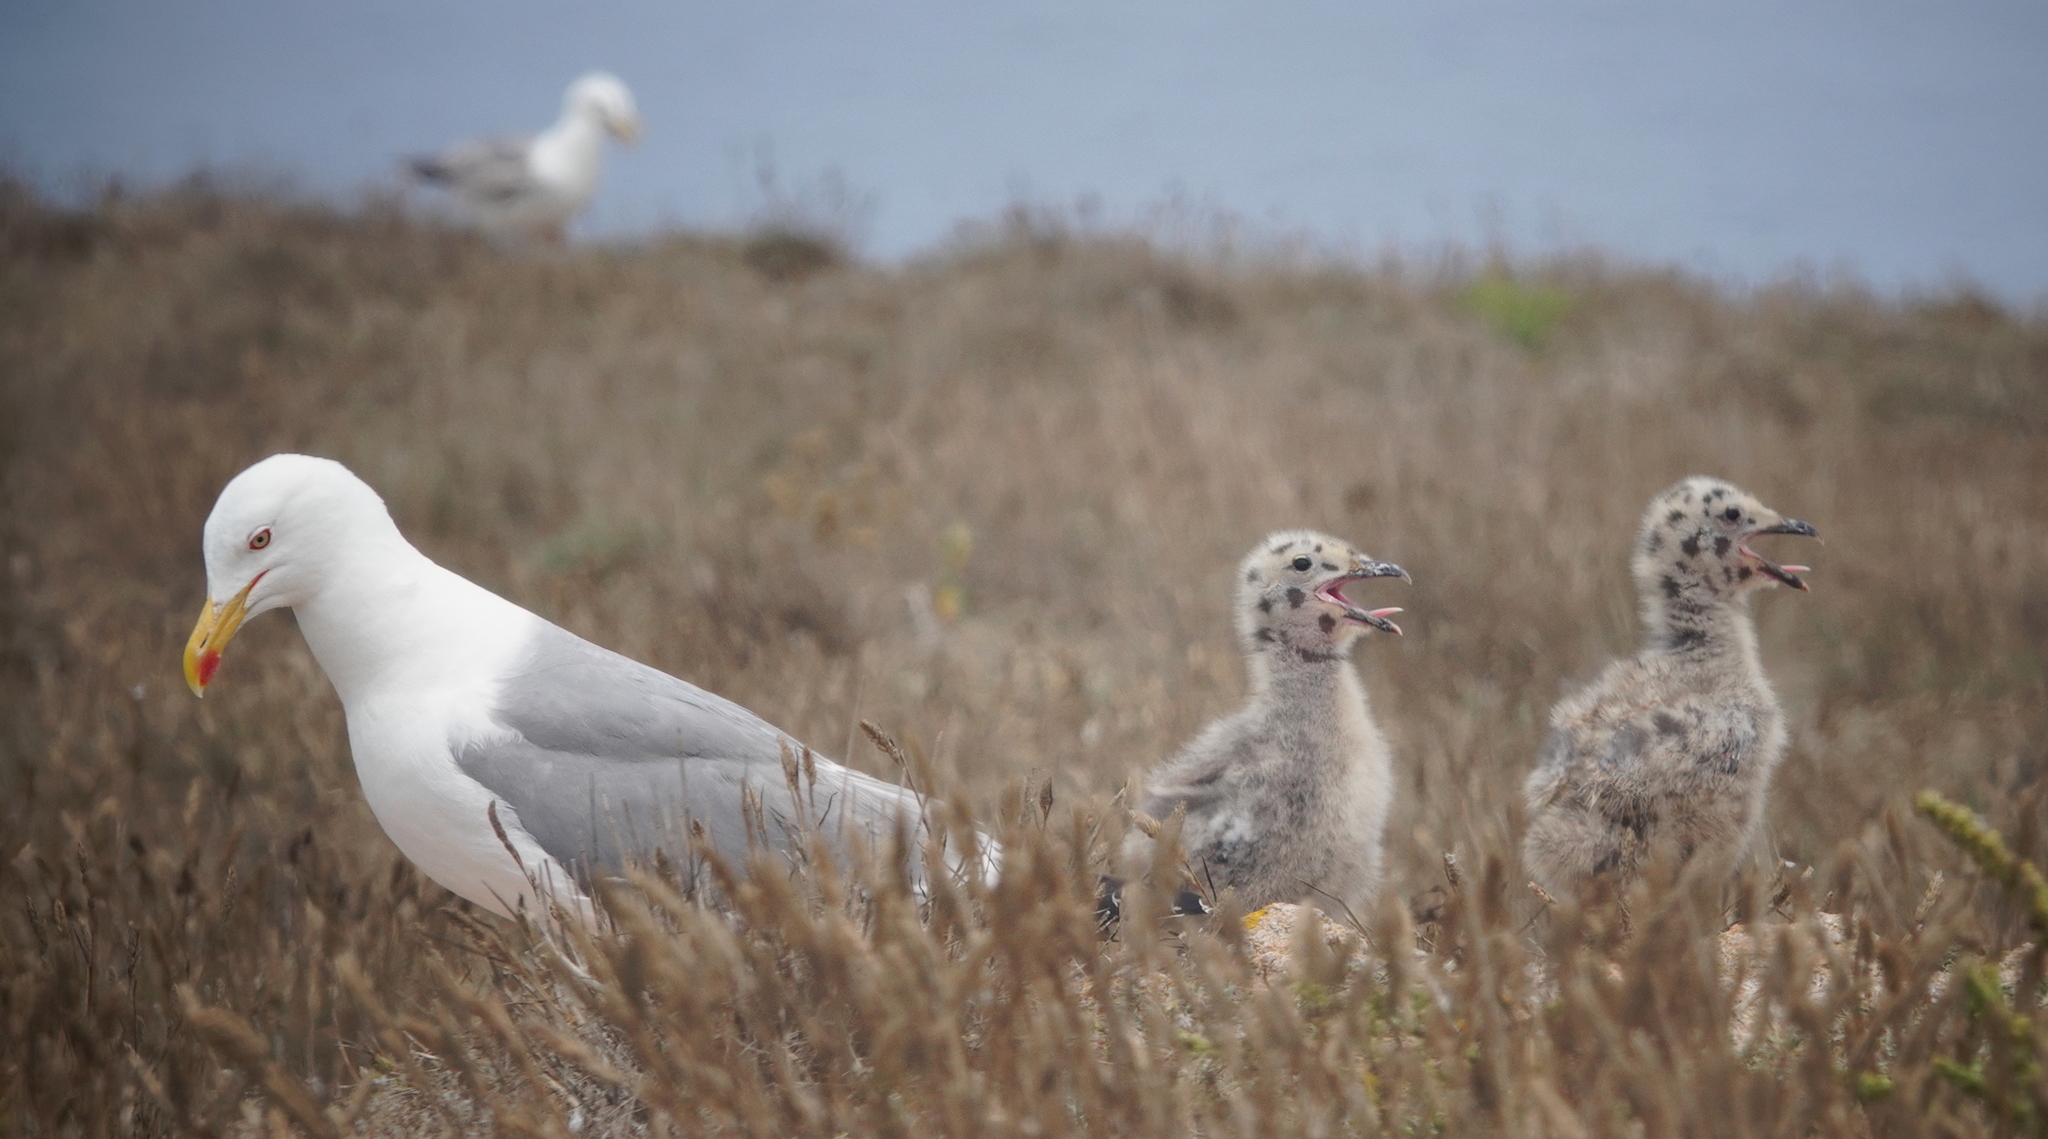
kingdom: Animalia
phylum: Chordata
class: Aves
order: Charadriiformes
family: Laridae
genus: Larus
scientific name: Larus michahellis
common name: Yellow-legged gull
